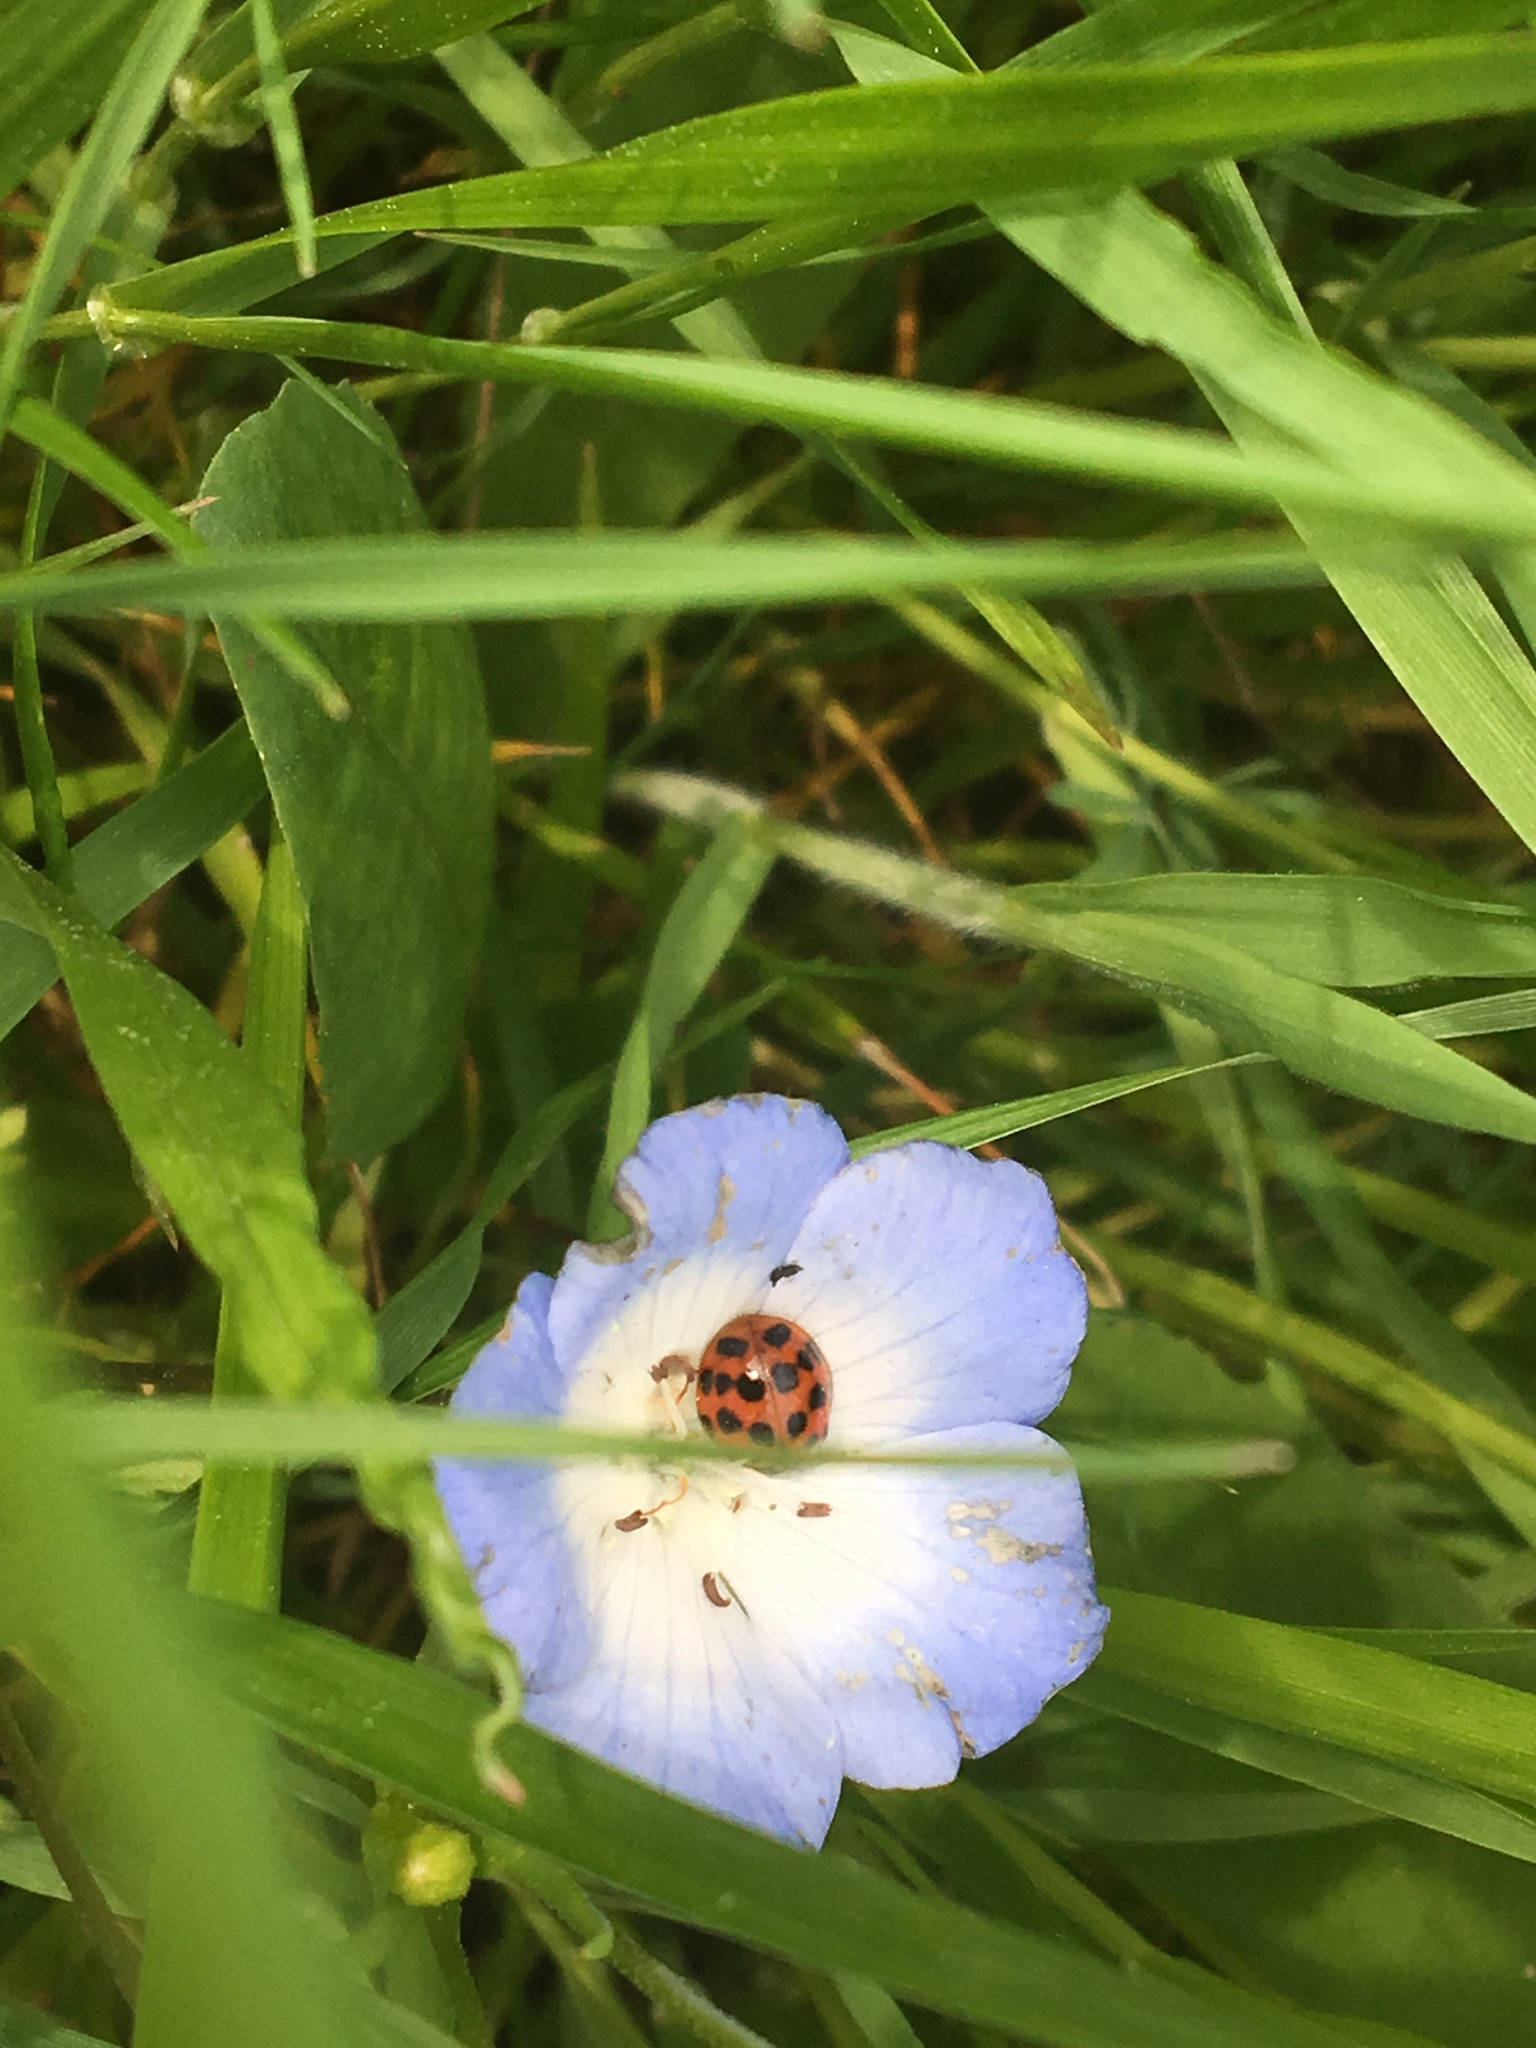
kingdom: Plantae
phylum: Tracheophyta
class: Magnoliopsida
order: Boraginales
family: Hydrophyllaceae
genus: Nemophila
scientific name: Nemophila menziesii
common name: Baby's-blue-eyes
